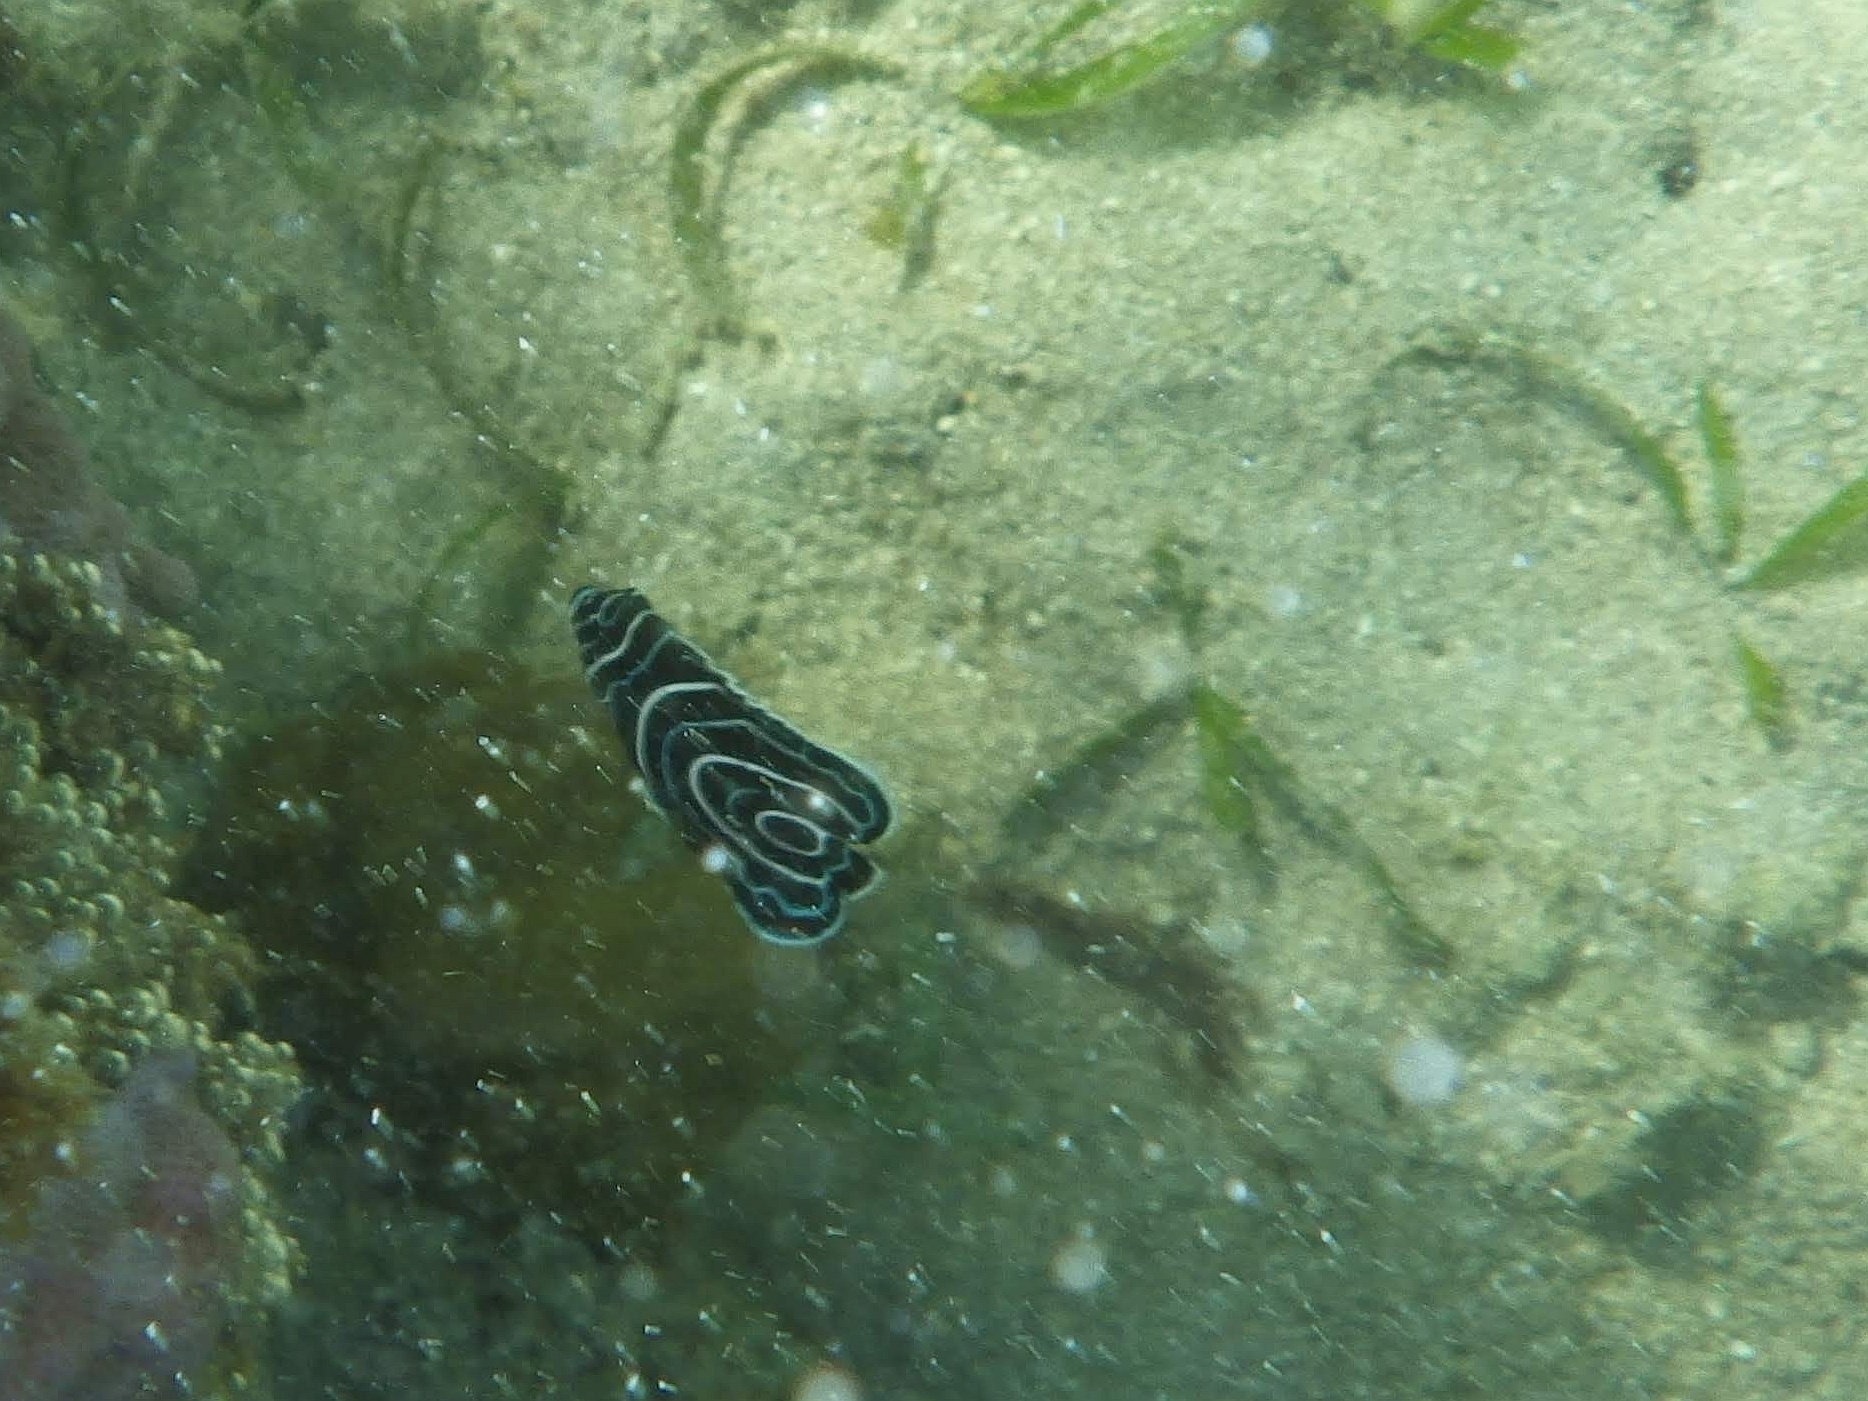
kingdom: Animalia
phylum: Chordata
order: Perciformes
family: Pomacanthidae
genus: Pomacanthus
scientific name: Pomacanthus imperator
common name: Emperor angelfish
